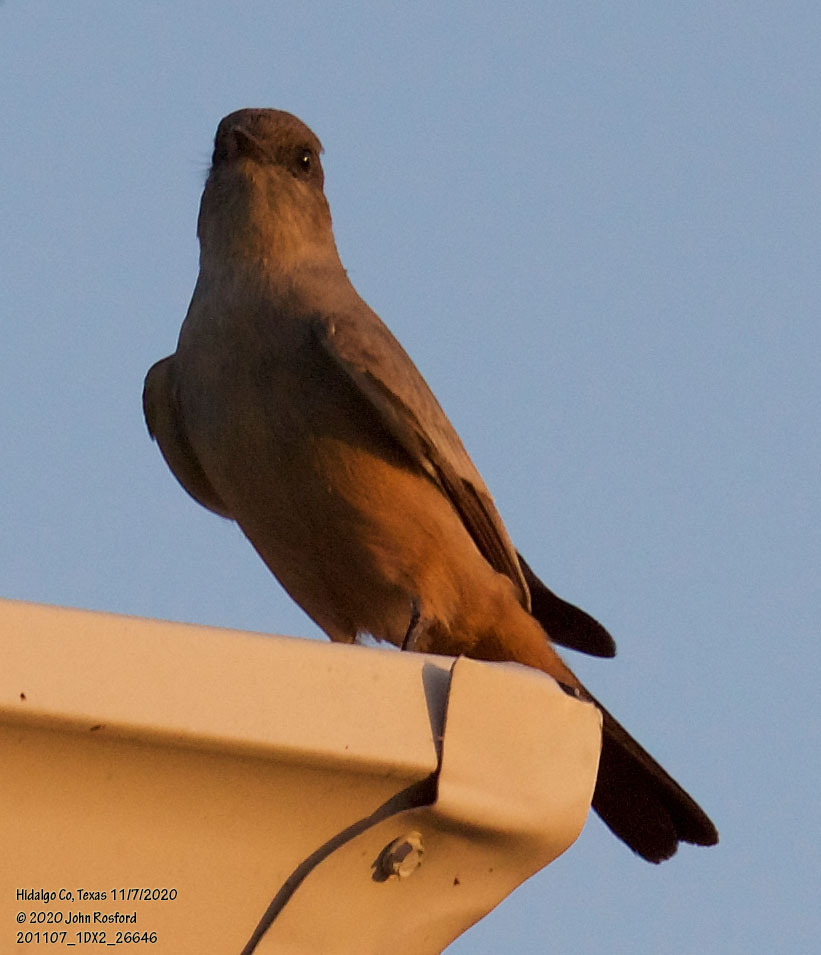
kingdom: Animalia
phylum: Chordata
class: Aves
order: Passeriformes
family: Tyrannidae
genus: Sayornis
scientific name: Sayornis saya
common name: Say's phoebe
